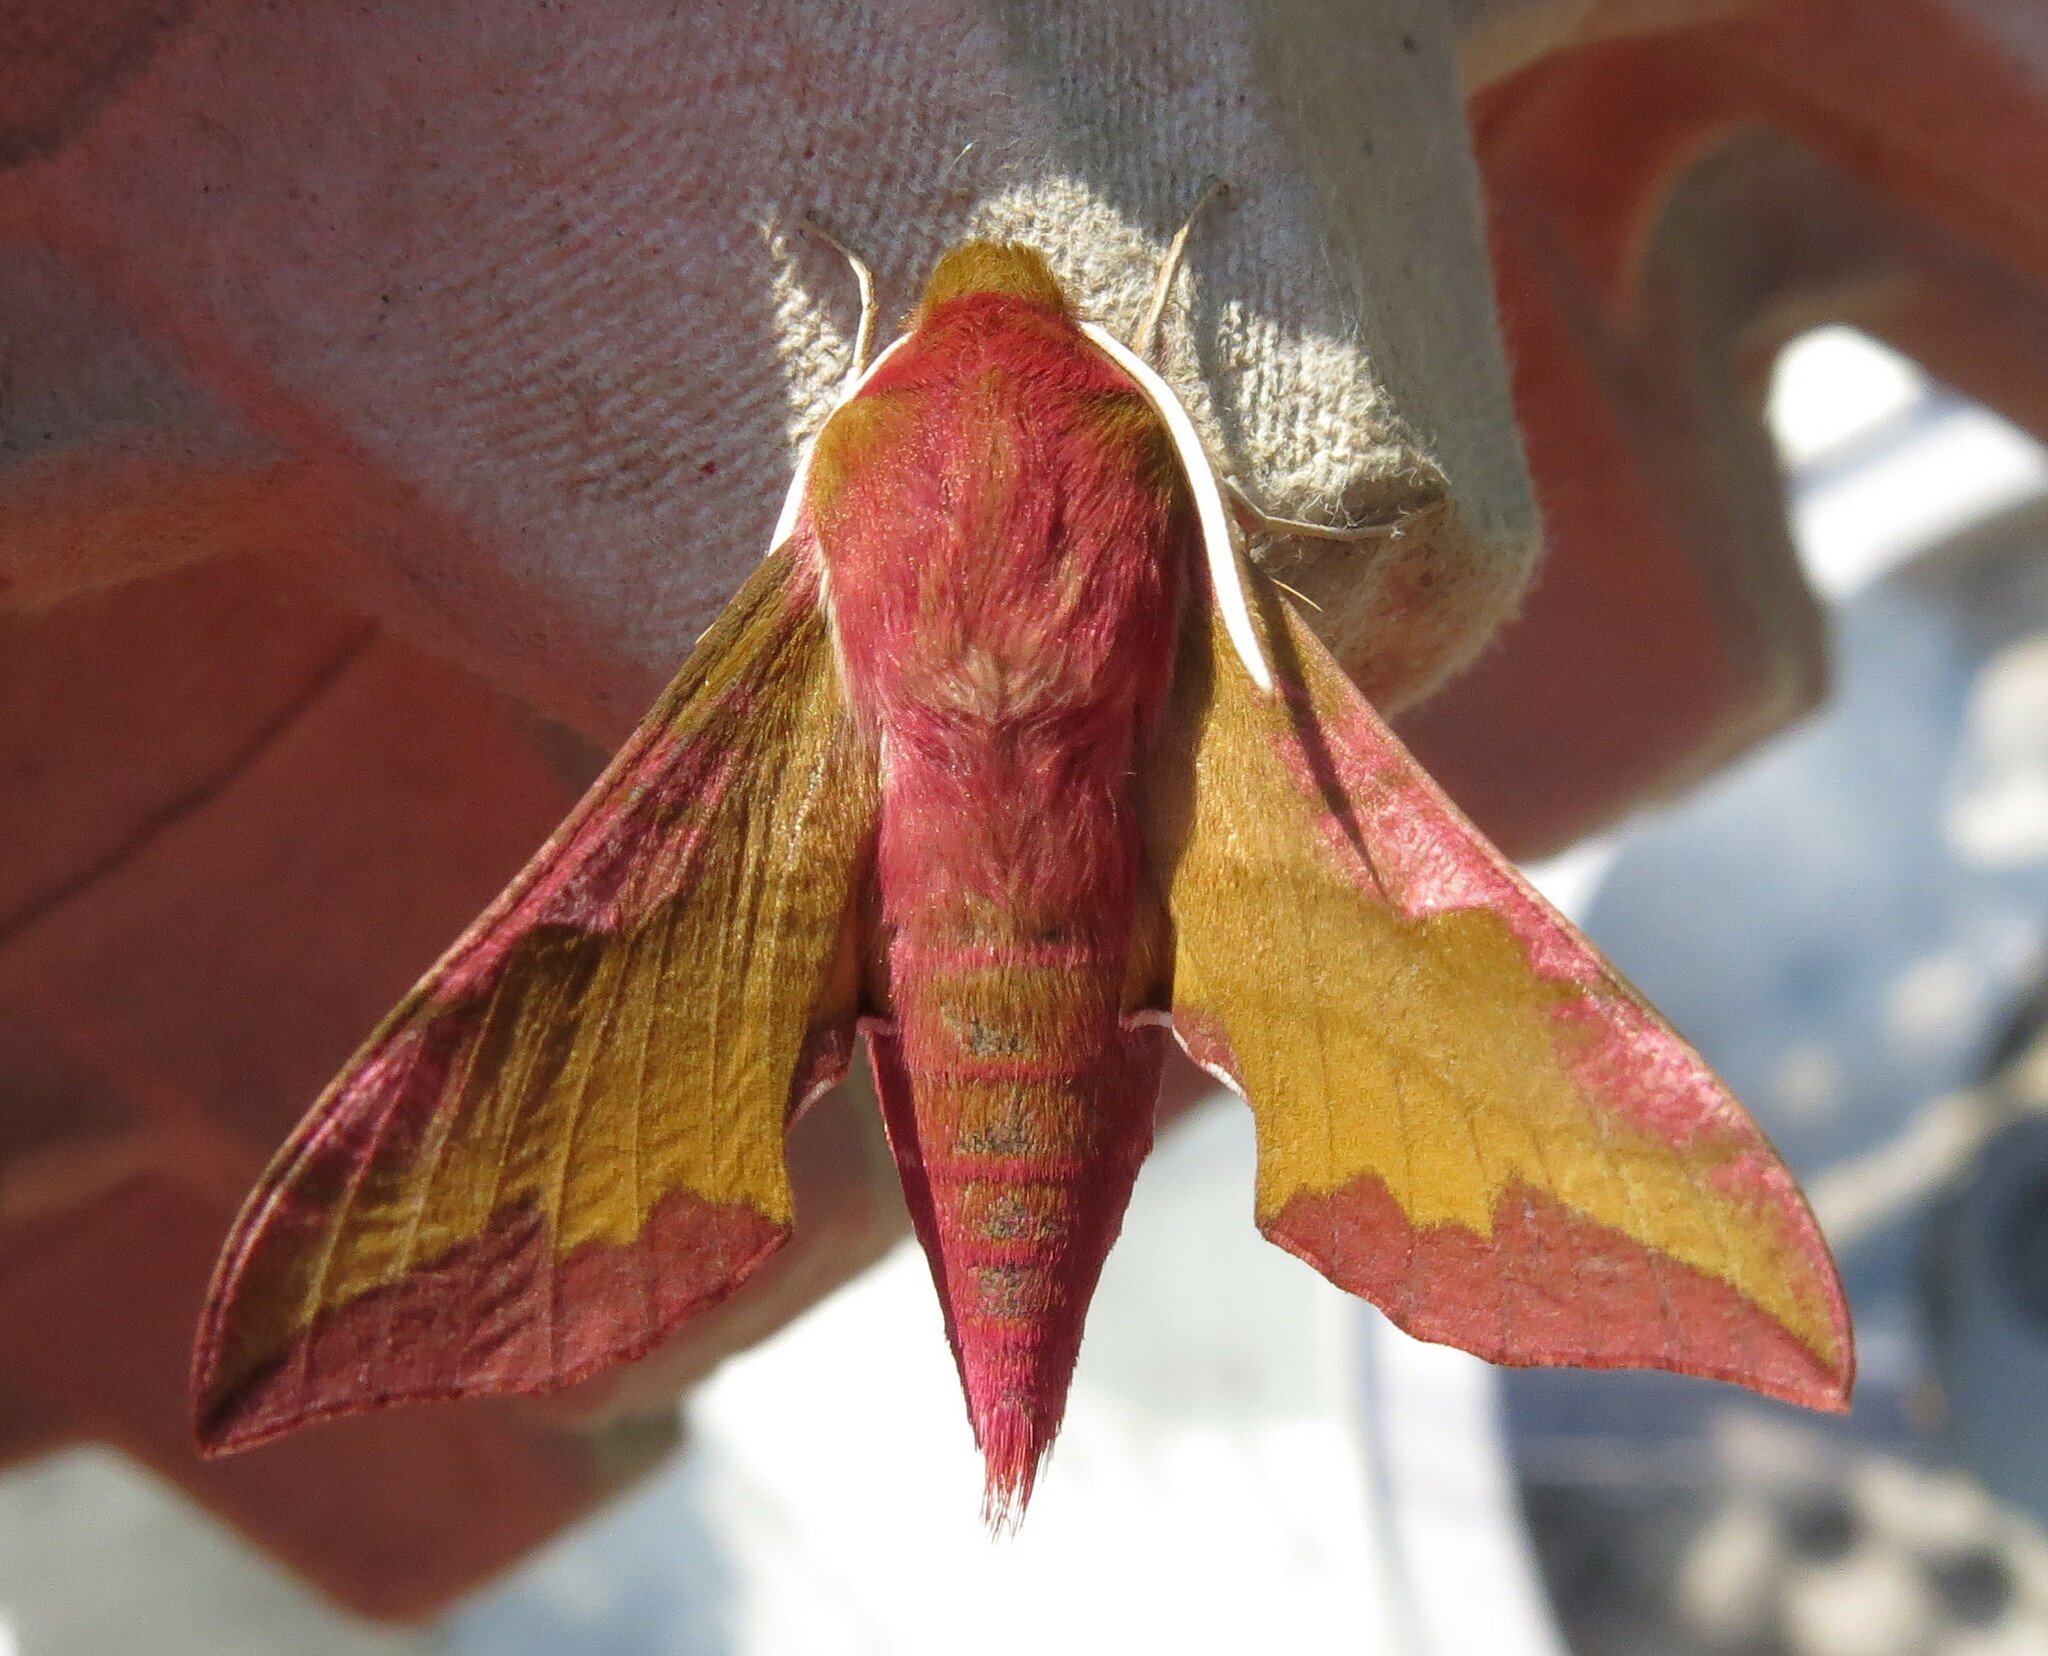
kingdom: Animalia
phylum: Arthropoda
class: Insecta
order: Lepidoptera
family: Sphingidae
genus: Deilephila
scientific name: Deilephila porcellus
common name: Small elephant hawk-moth
